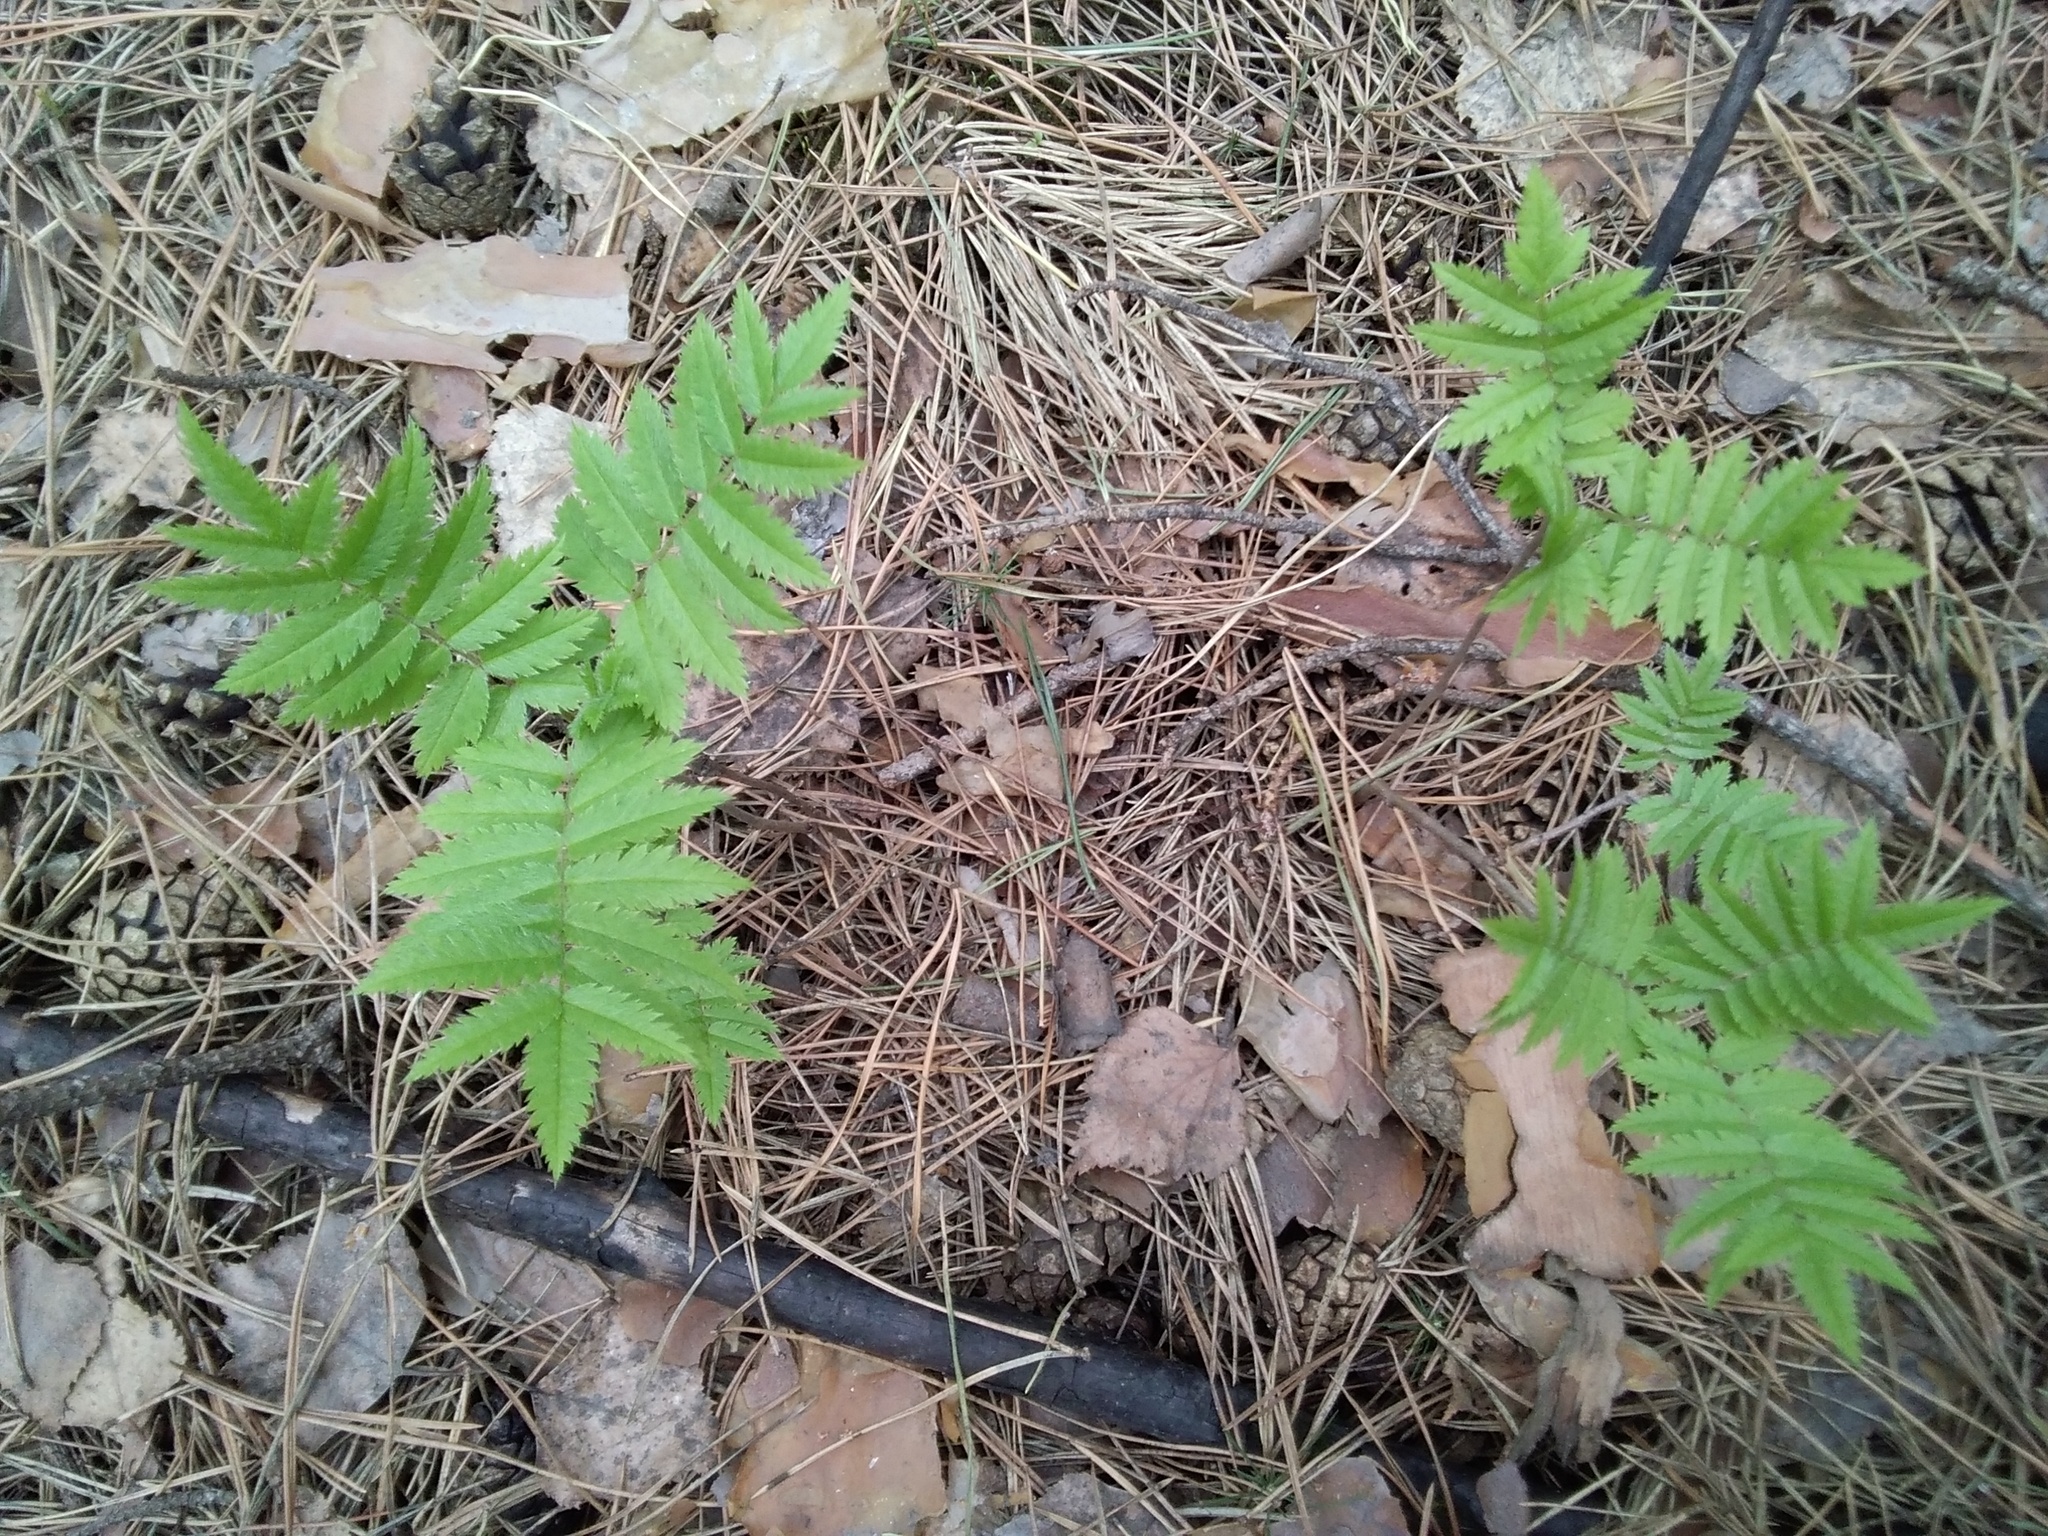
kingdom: Plantae
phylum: Tracheophyta
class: Magnoliopsida
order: Rosales
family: Rosaceae
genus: Sorbus
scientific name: Sorbus aucuparia
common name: Rowan
